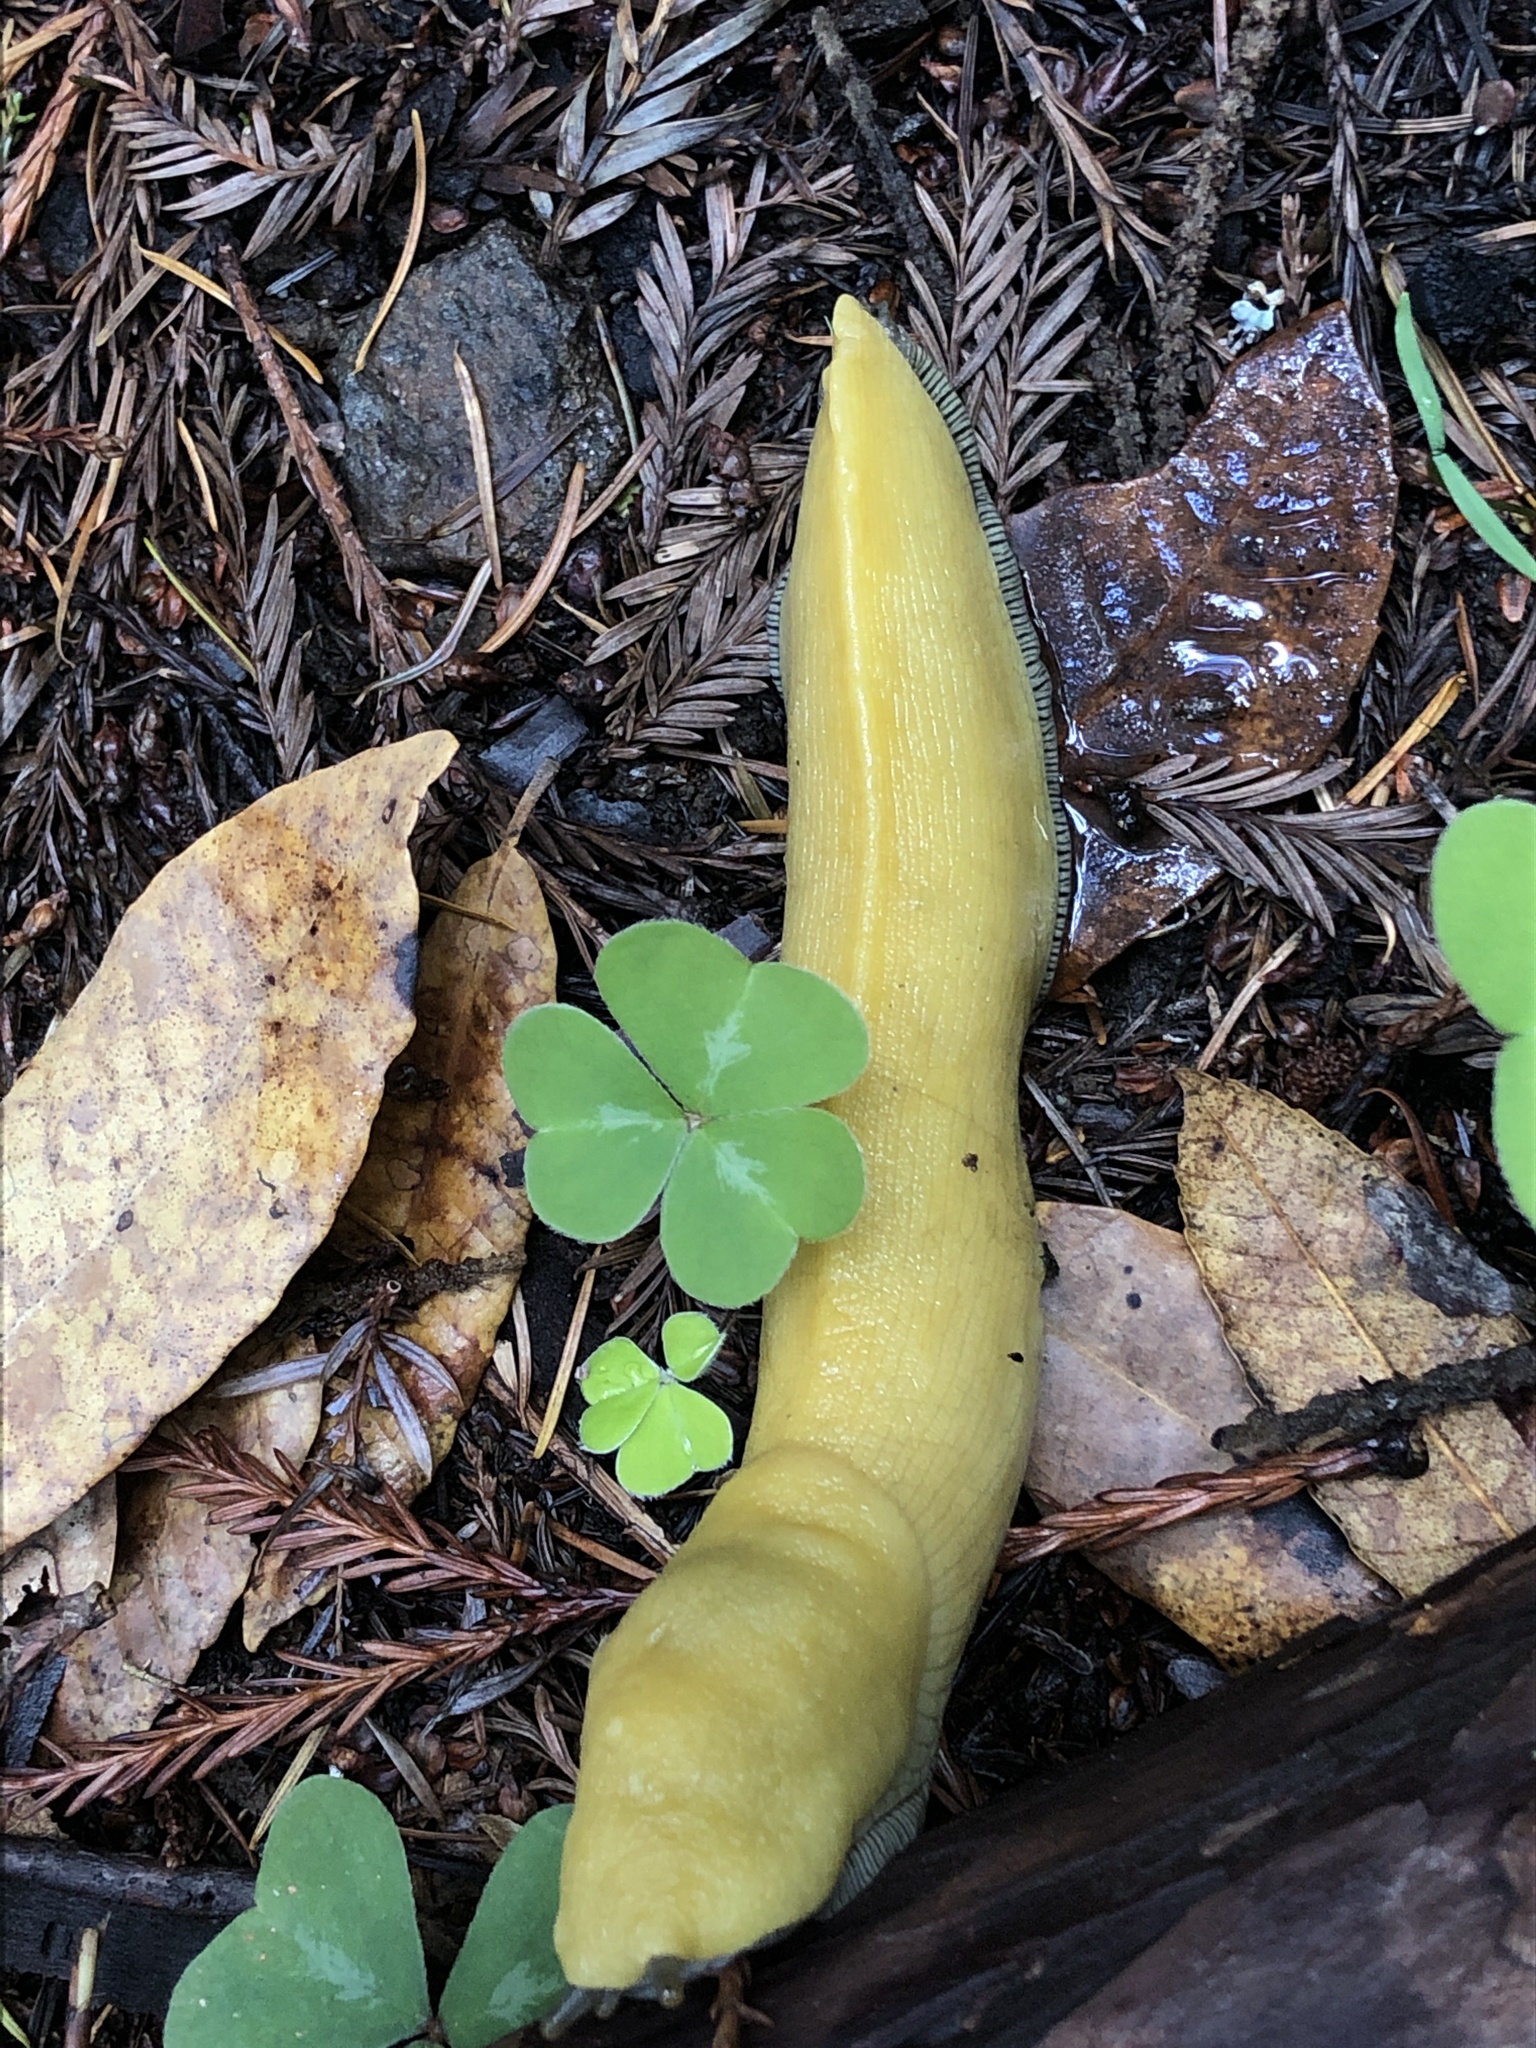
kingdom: Animalia
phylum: Mollusca
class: Gastropoda
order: Stylommatophora
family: Ariolimacidae
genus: Ariolimax
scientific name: Ariolimax dolichophallus
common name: Slender banana slug
